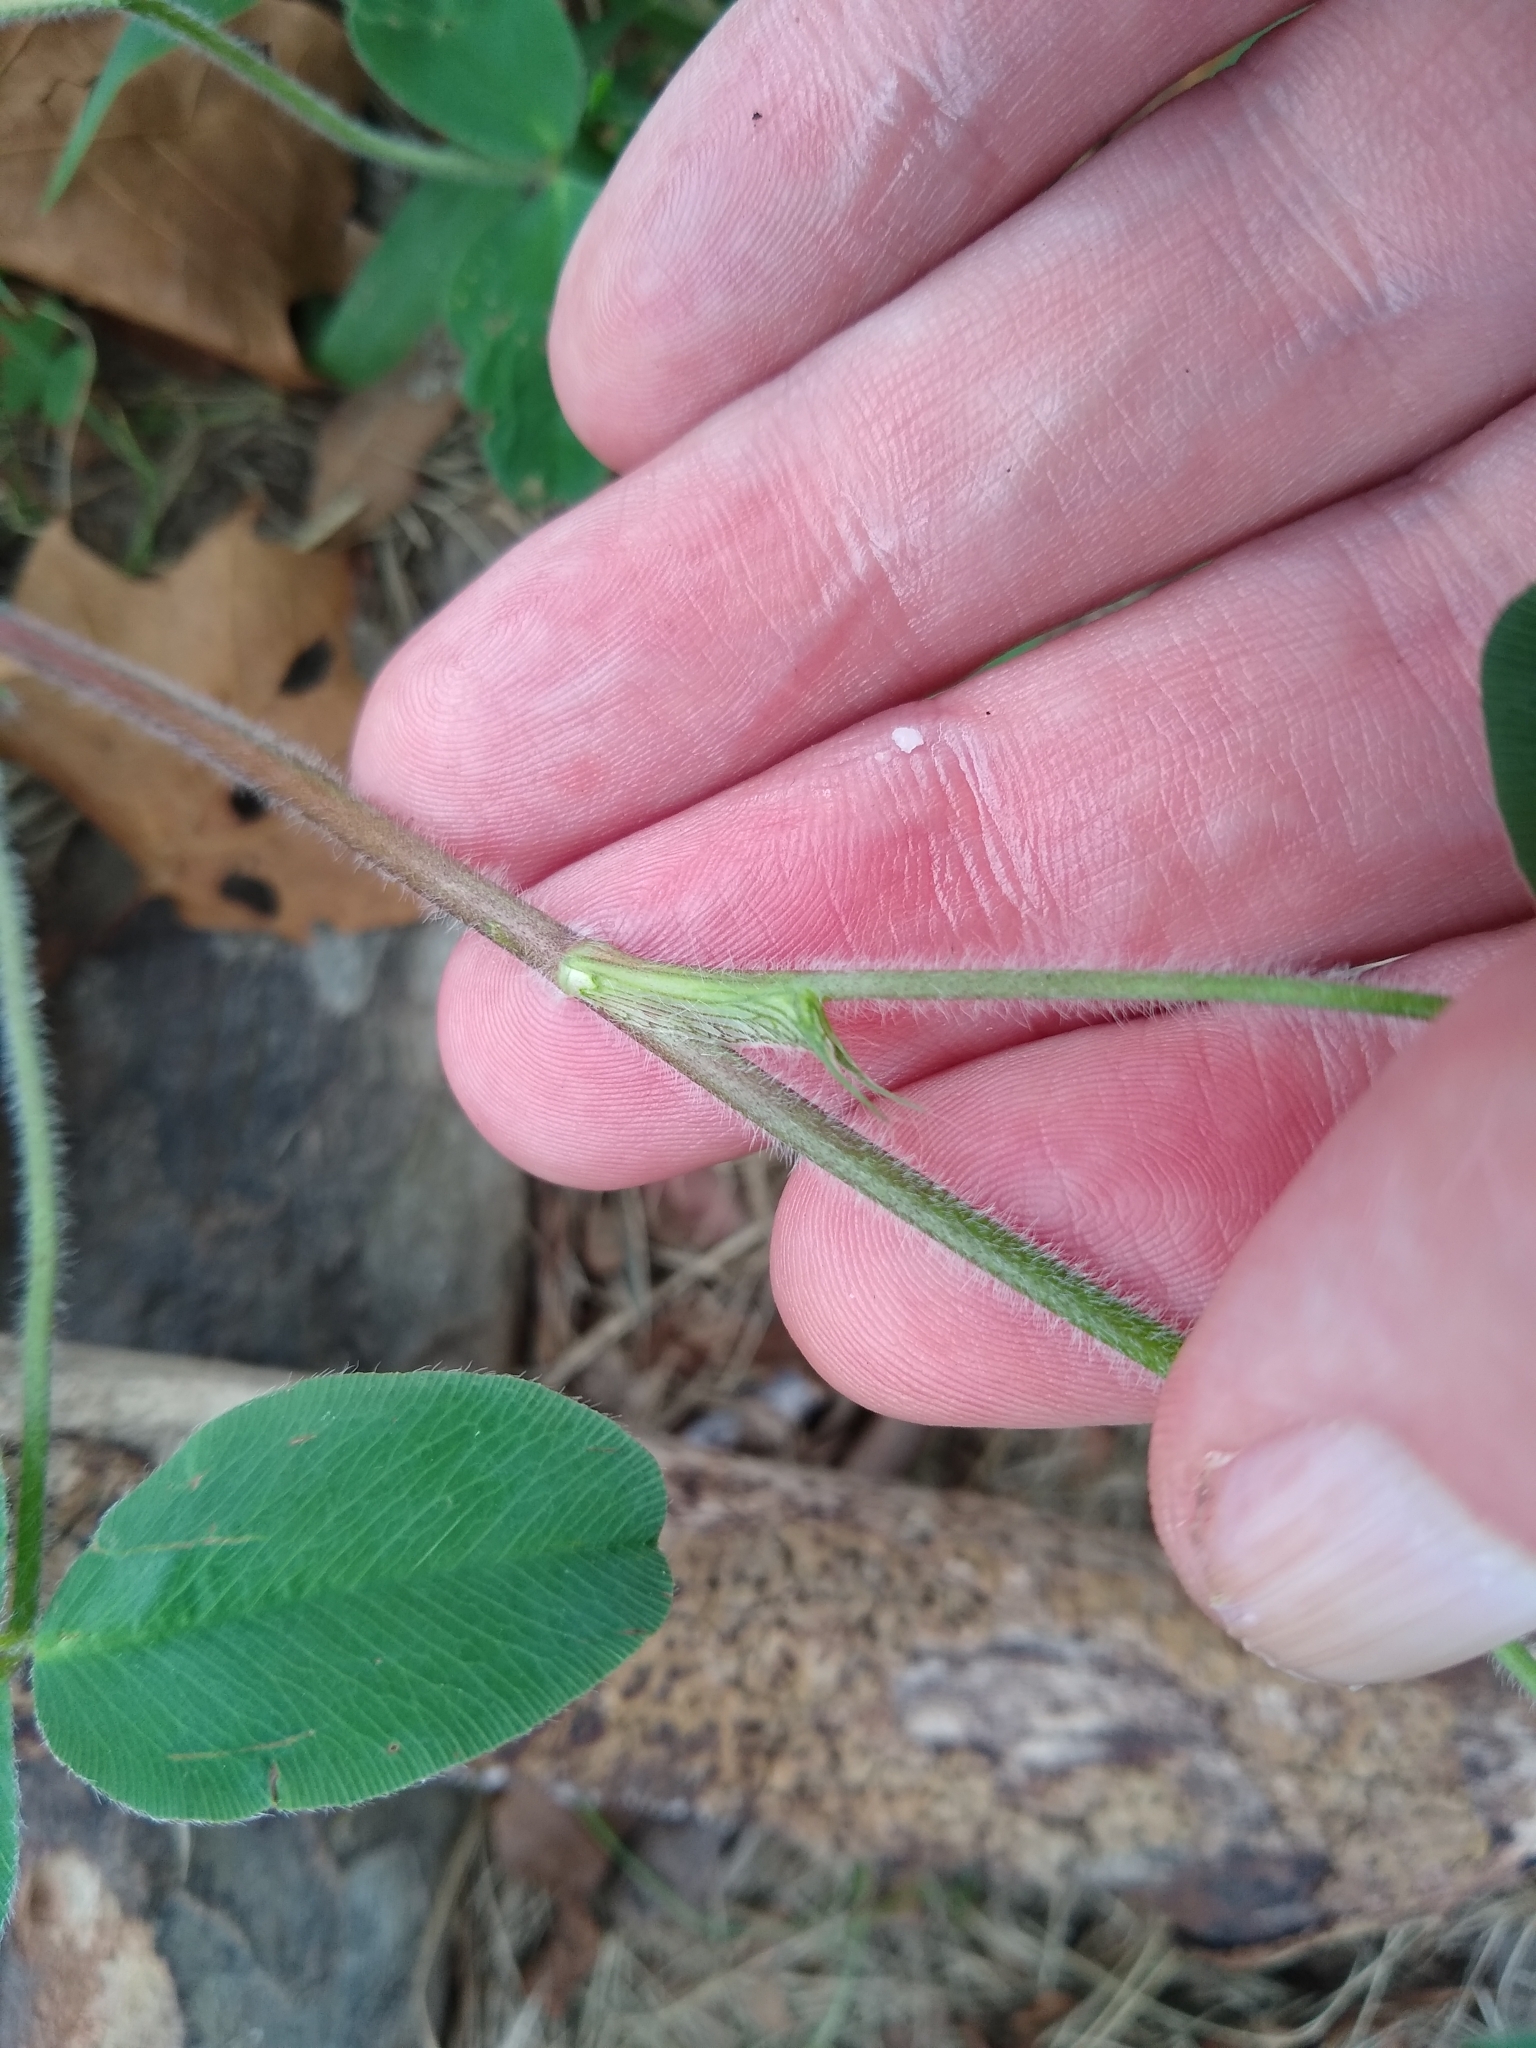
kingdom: Plantae
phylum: Tracheophyta
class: Magnoliopsida
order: Fabales
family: Fabaceae
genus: Trifolium
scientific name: Trifolium pratense
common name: Red clover
